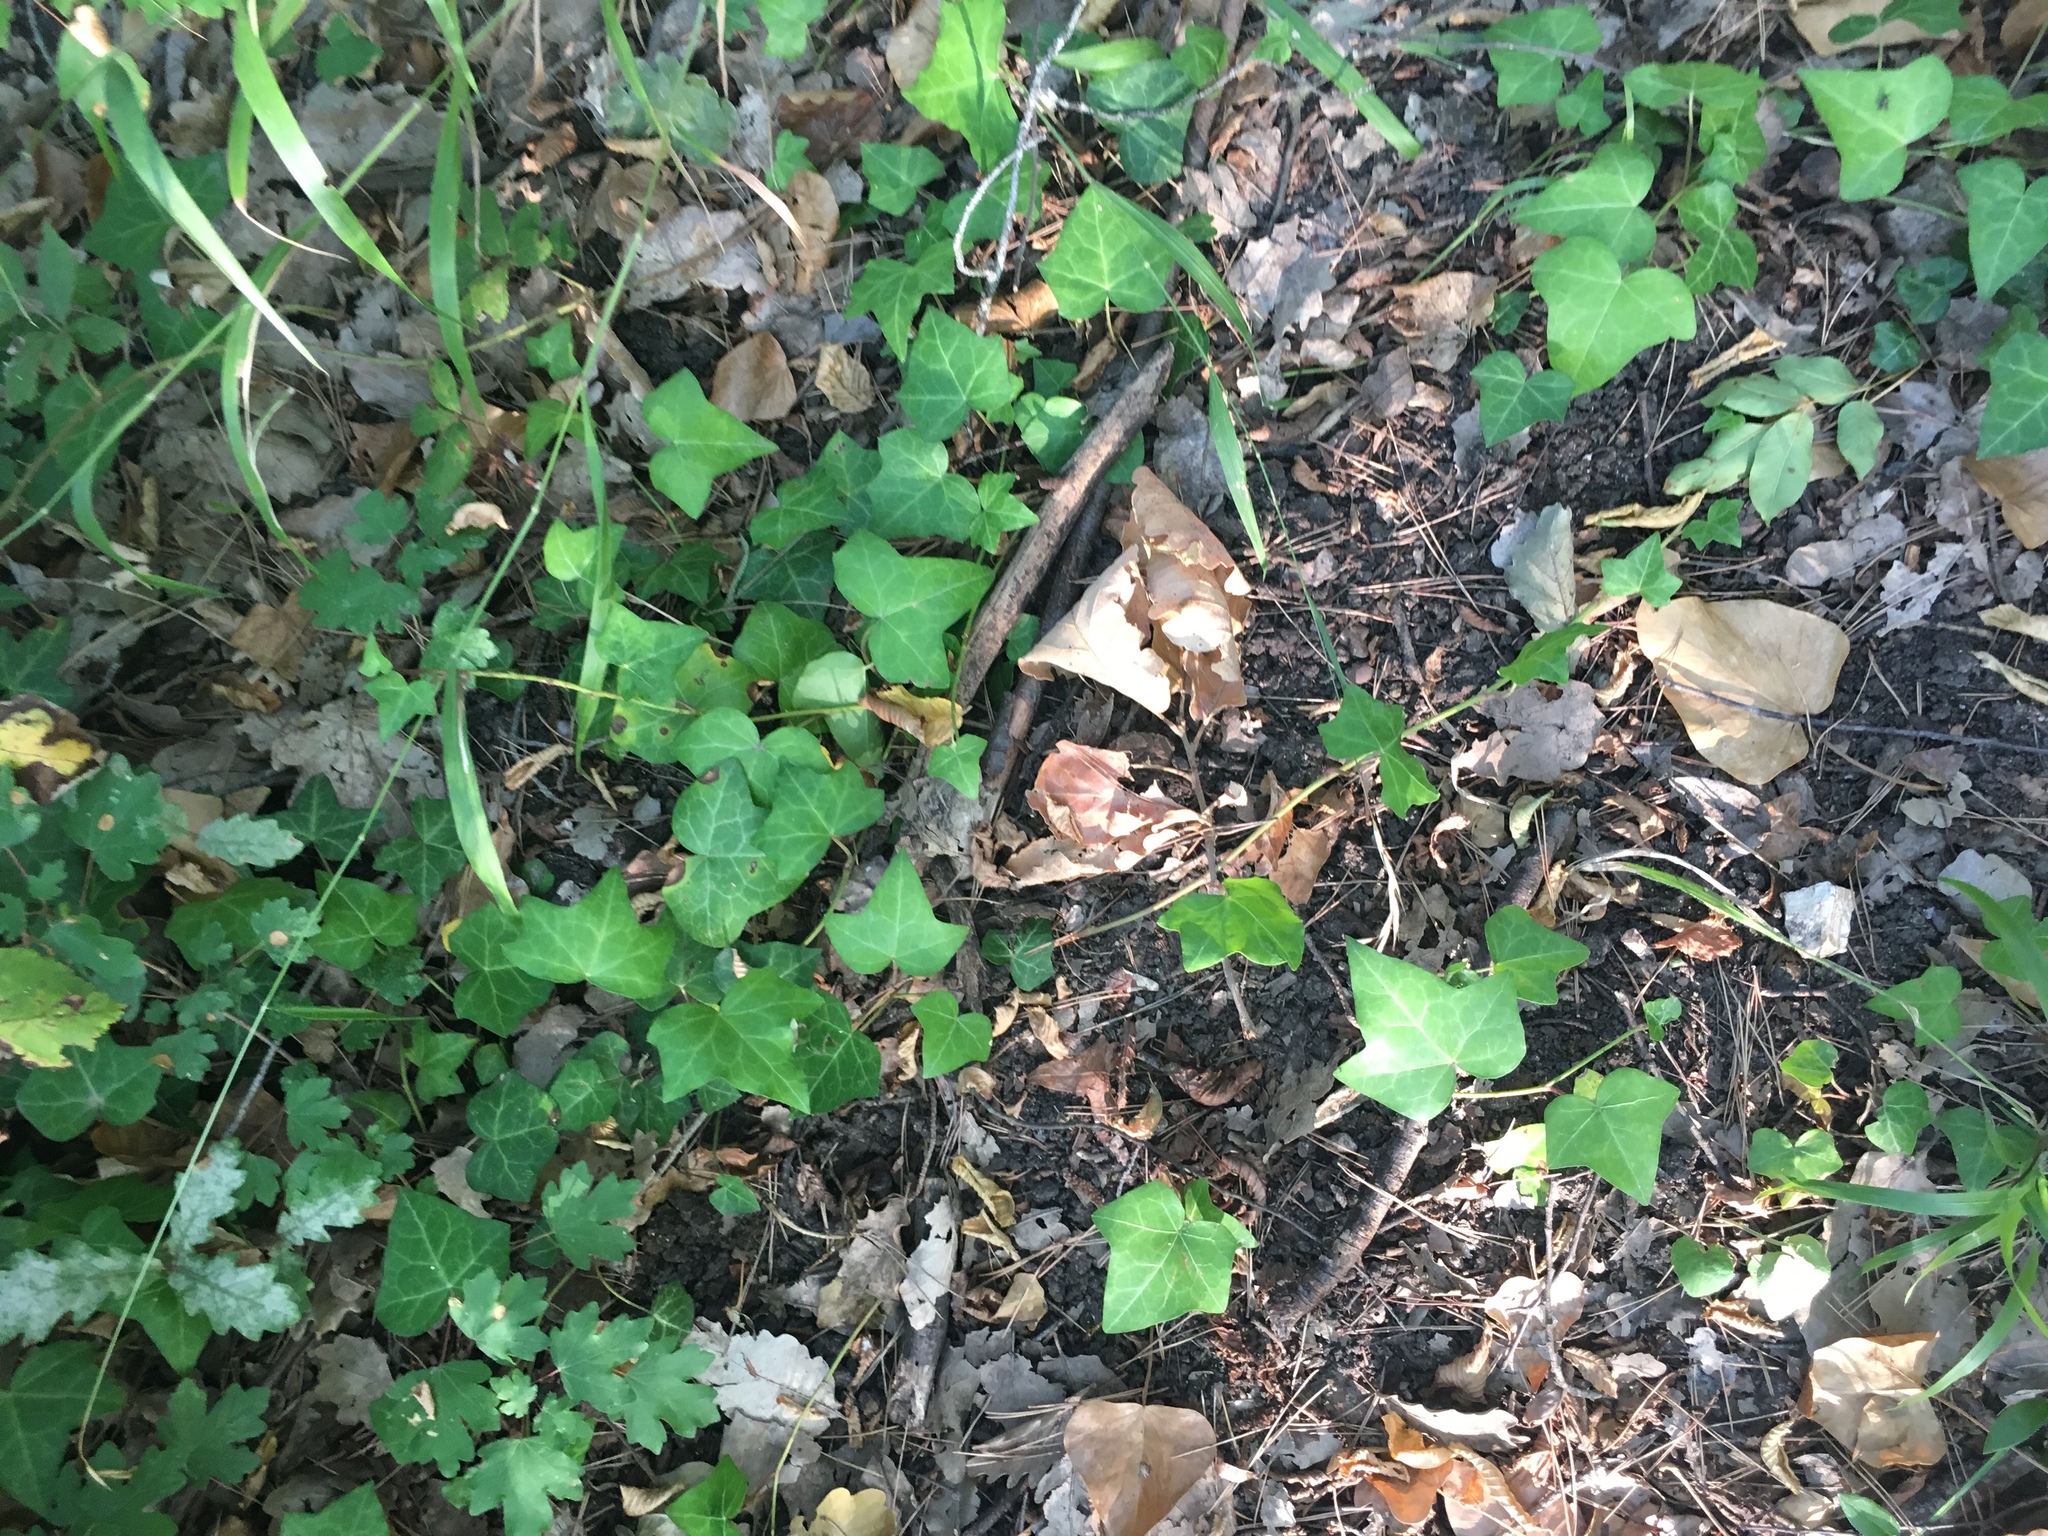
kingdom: Plantae
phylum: Tracheophyta
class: Magnoliopsida
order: Apiales
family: Araliaceae
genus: Hedera
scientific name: Hedera helix
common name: Ivy
